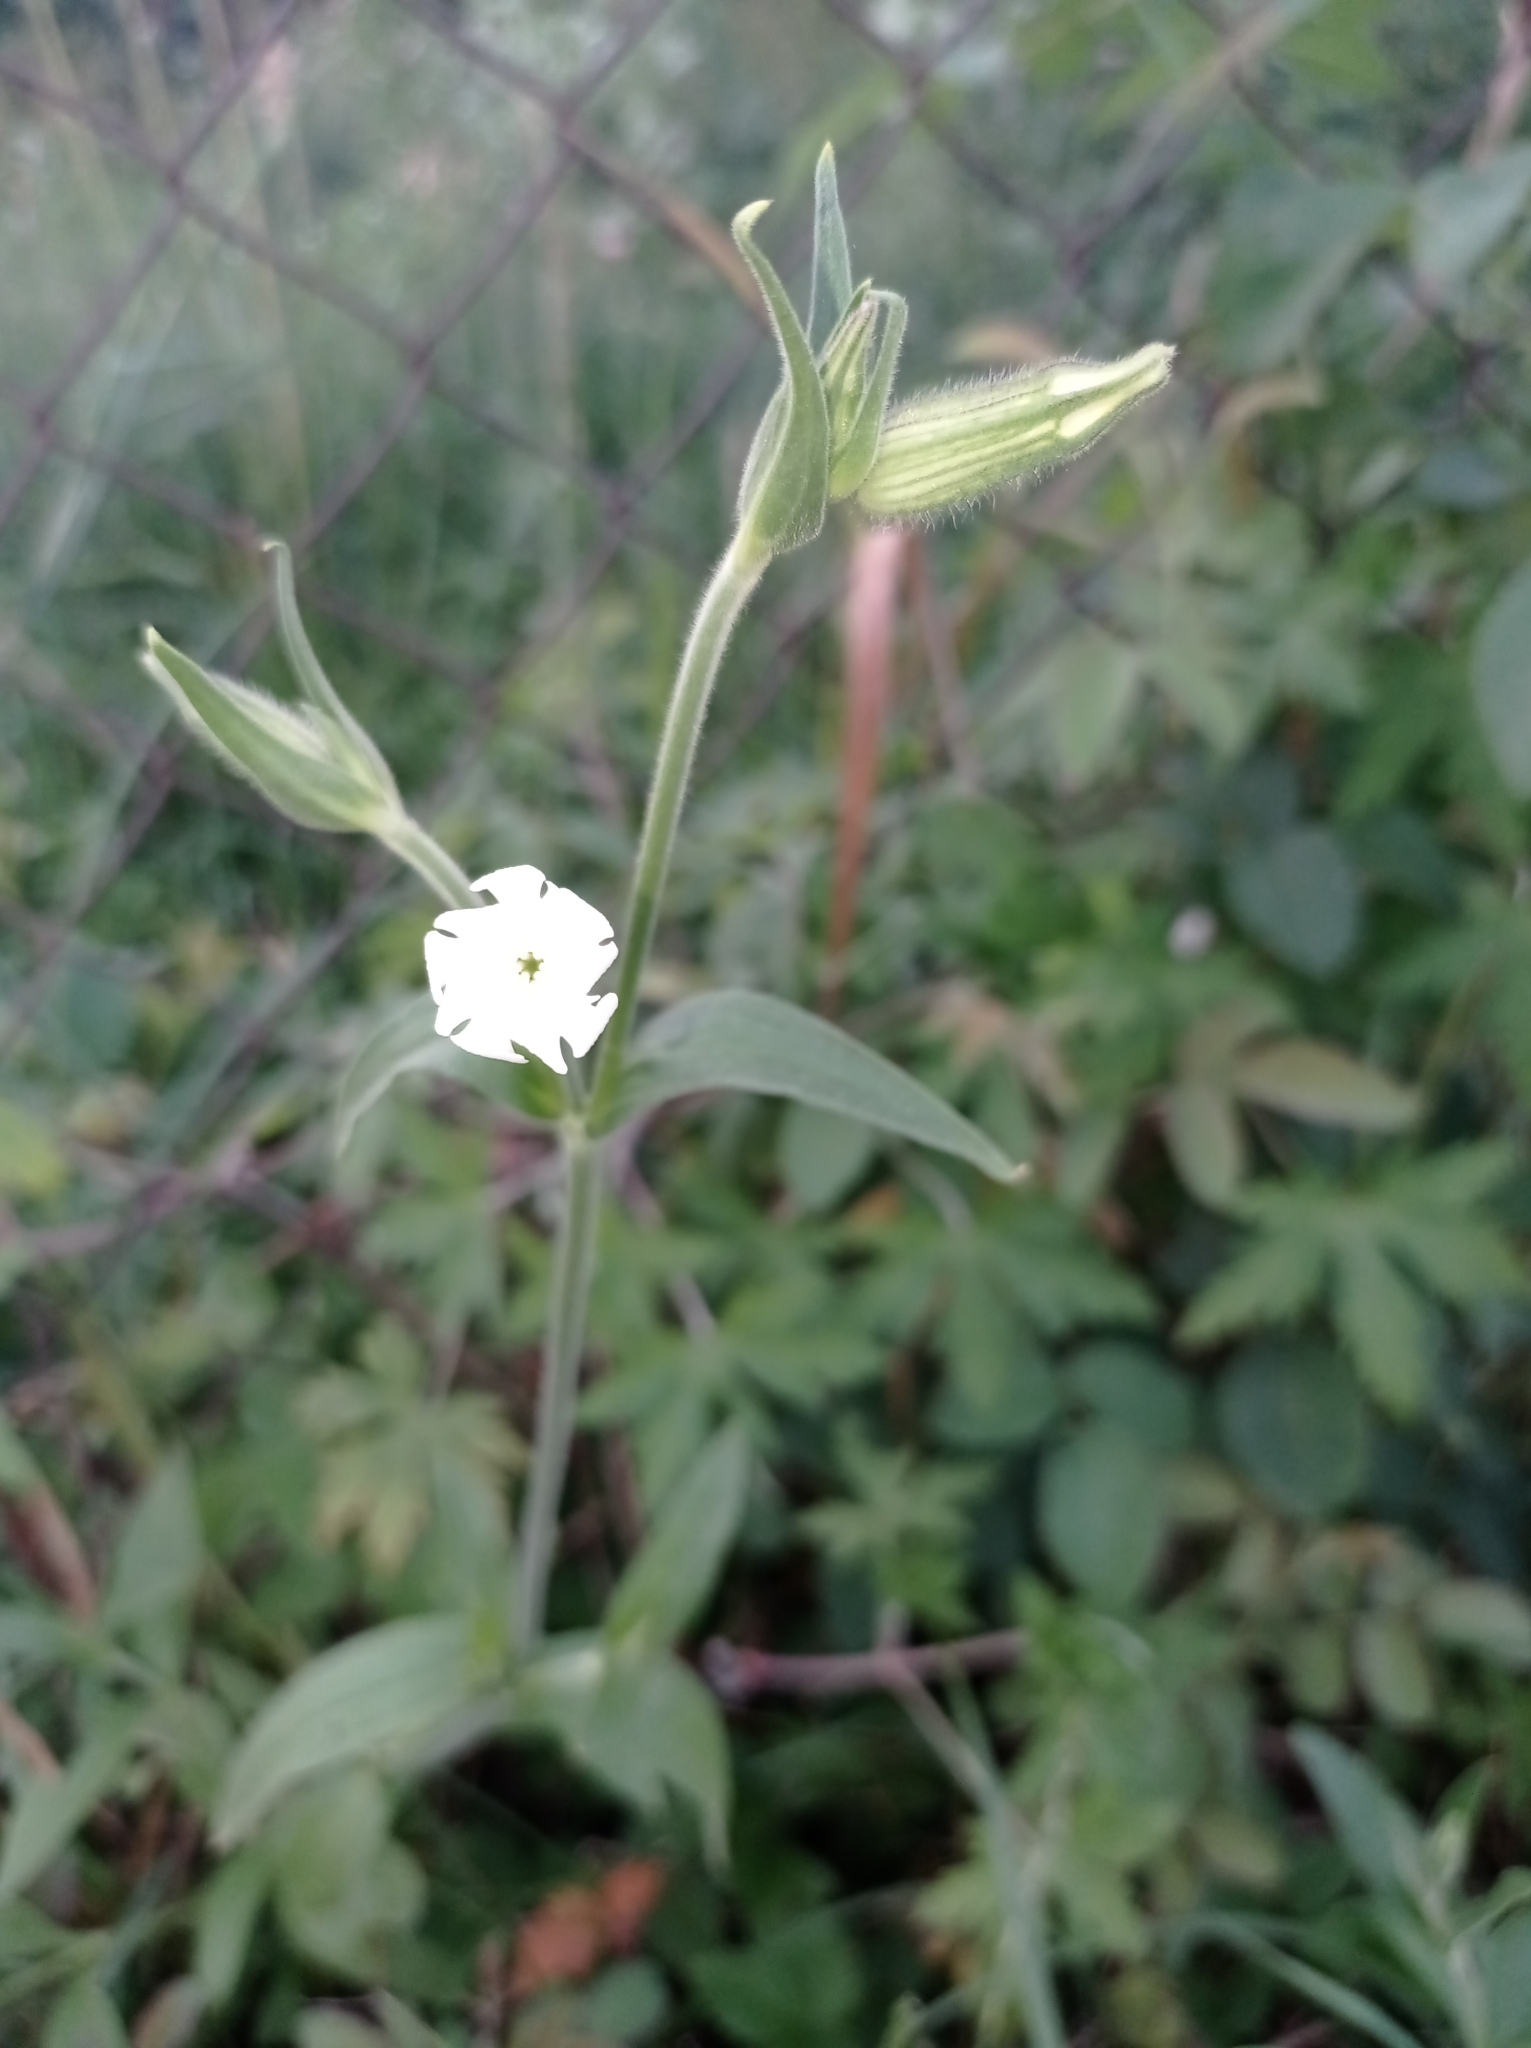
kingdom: Plantae
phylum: Tracheophyta
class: Magnoliopsida
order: Caryophyllales
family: Caryophyllaceae
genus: Silene
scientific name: Silene latifolia
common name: White campion
